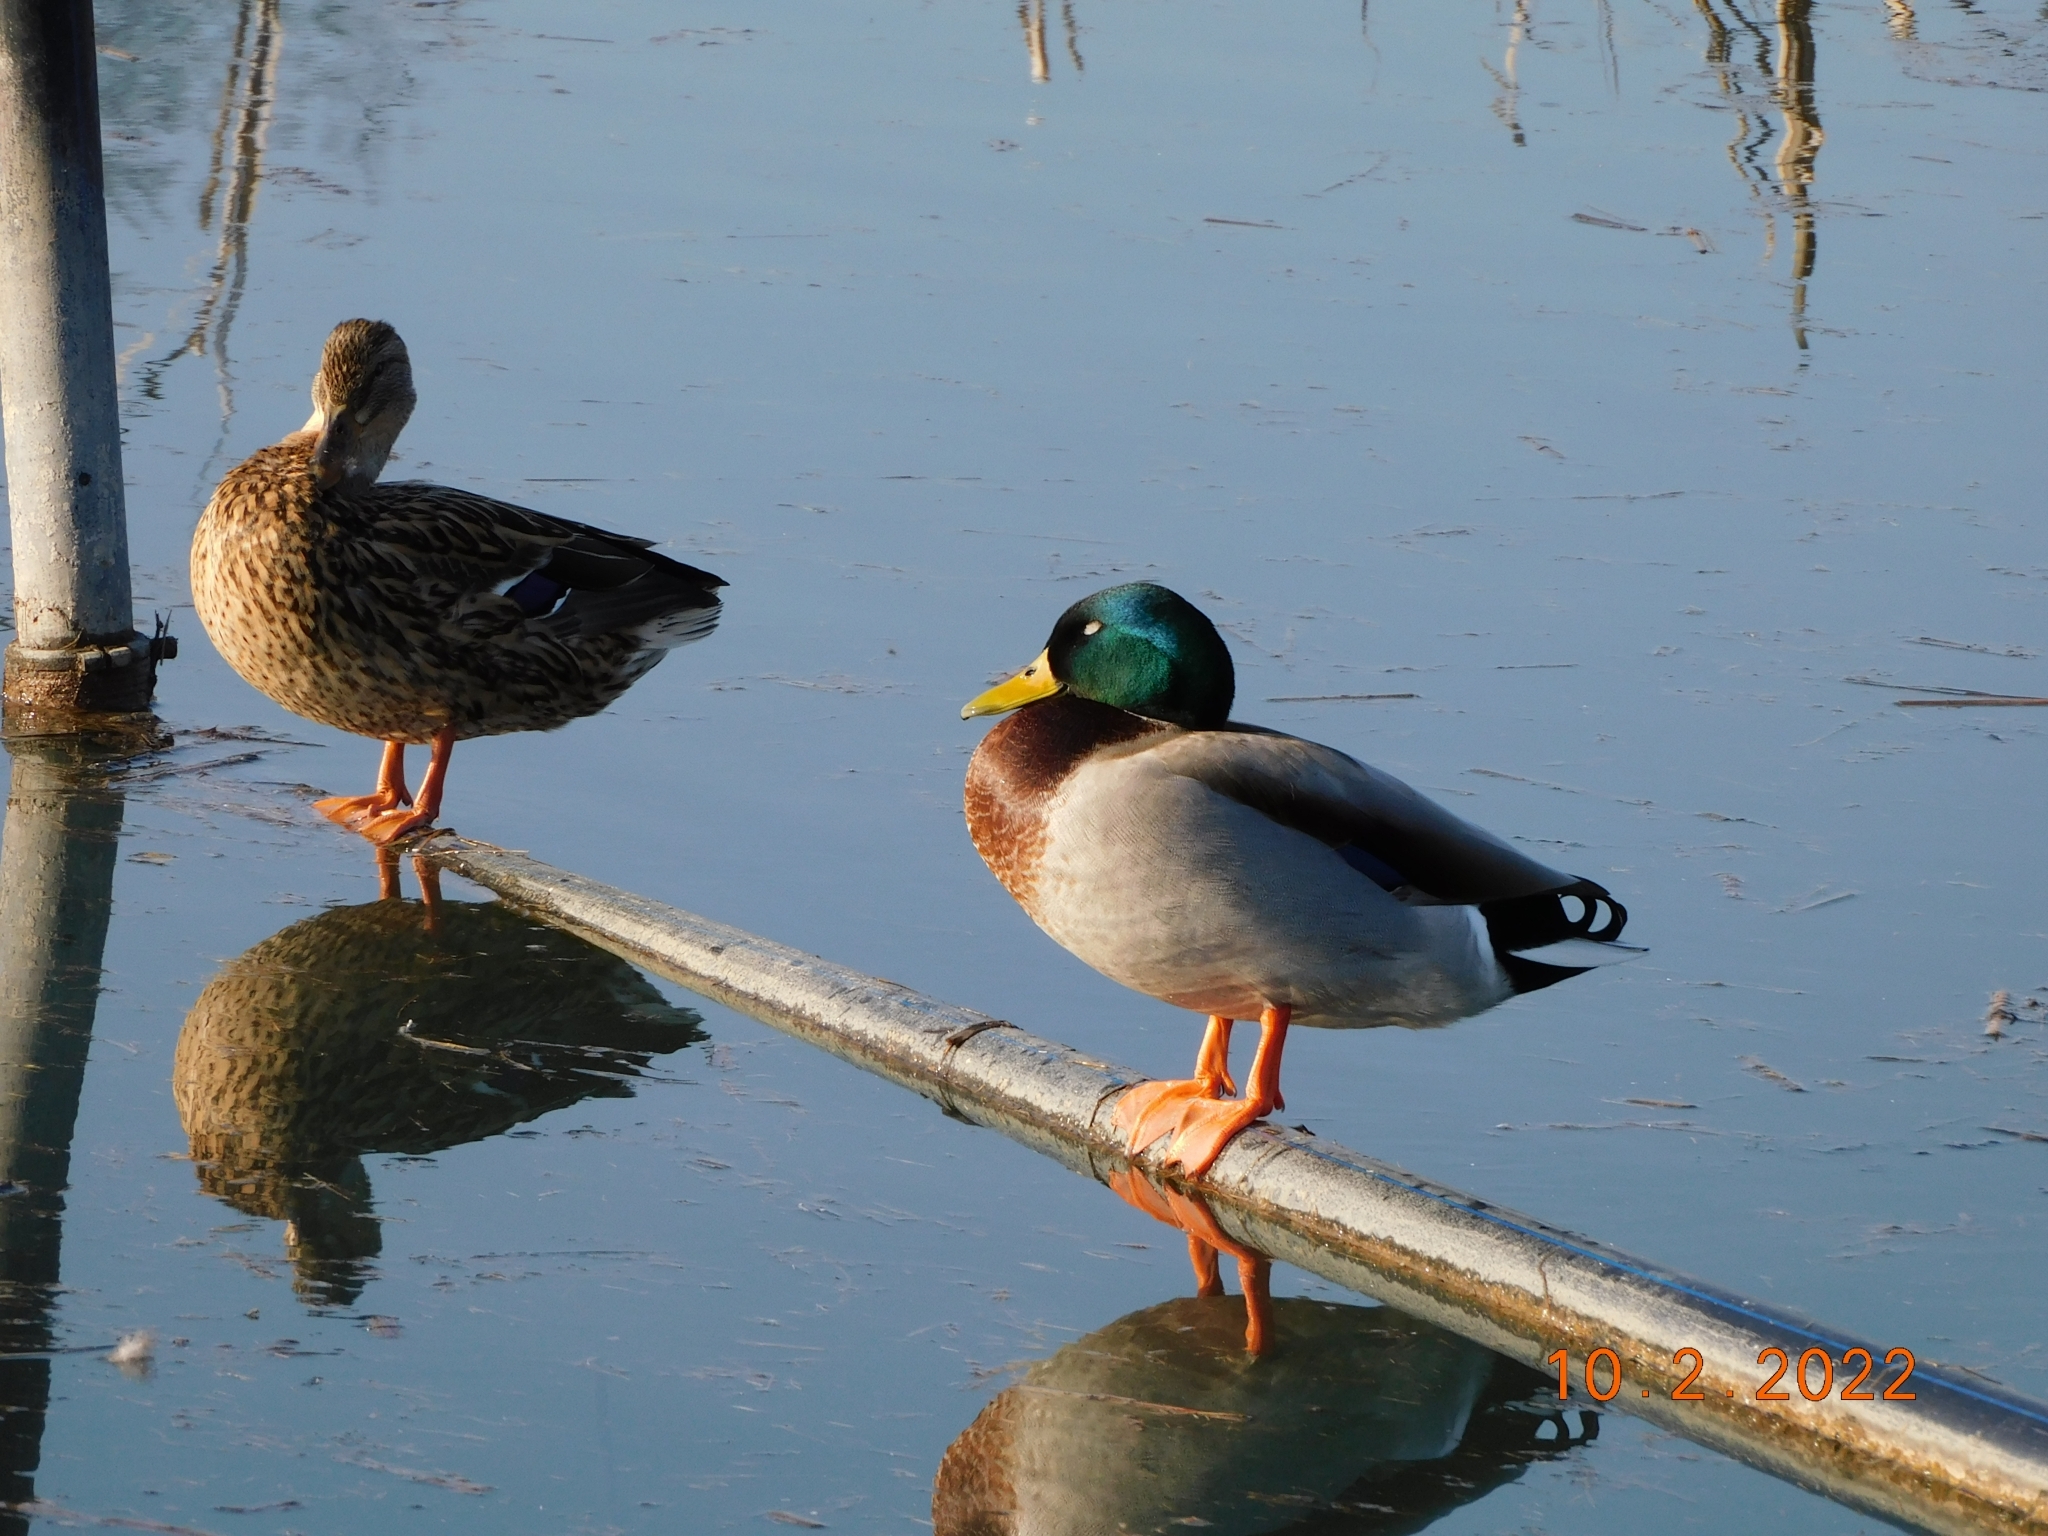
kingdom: Animalia
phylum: Chordata
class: Aves
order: Anseriformes
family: Anatidae
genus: Anas
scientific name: Anas platyrhynchos
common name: Mallard
